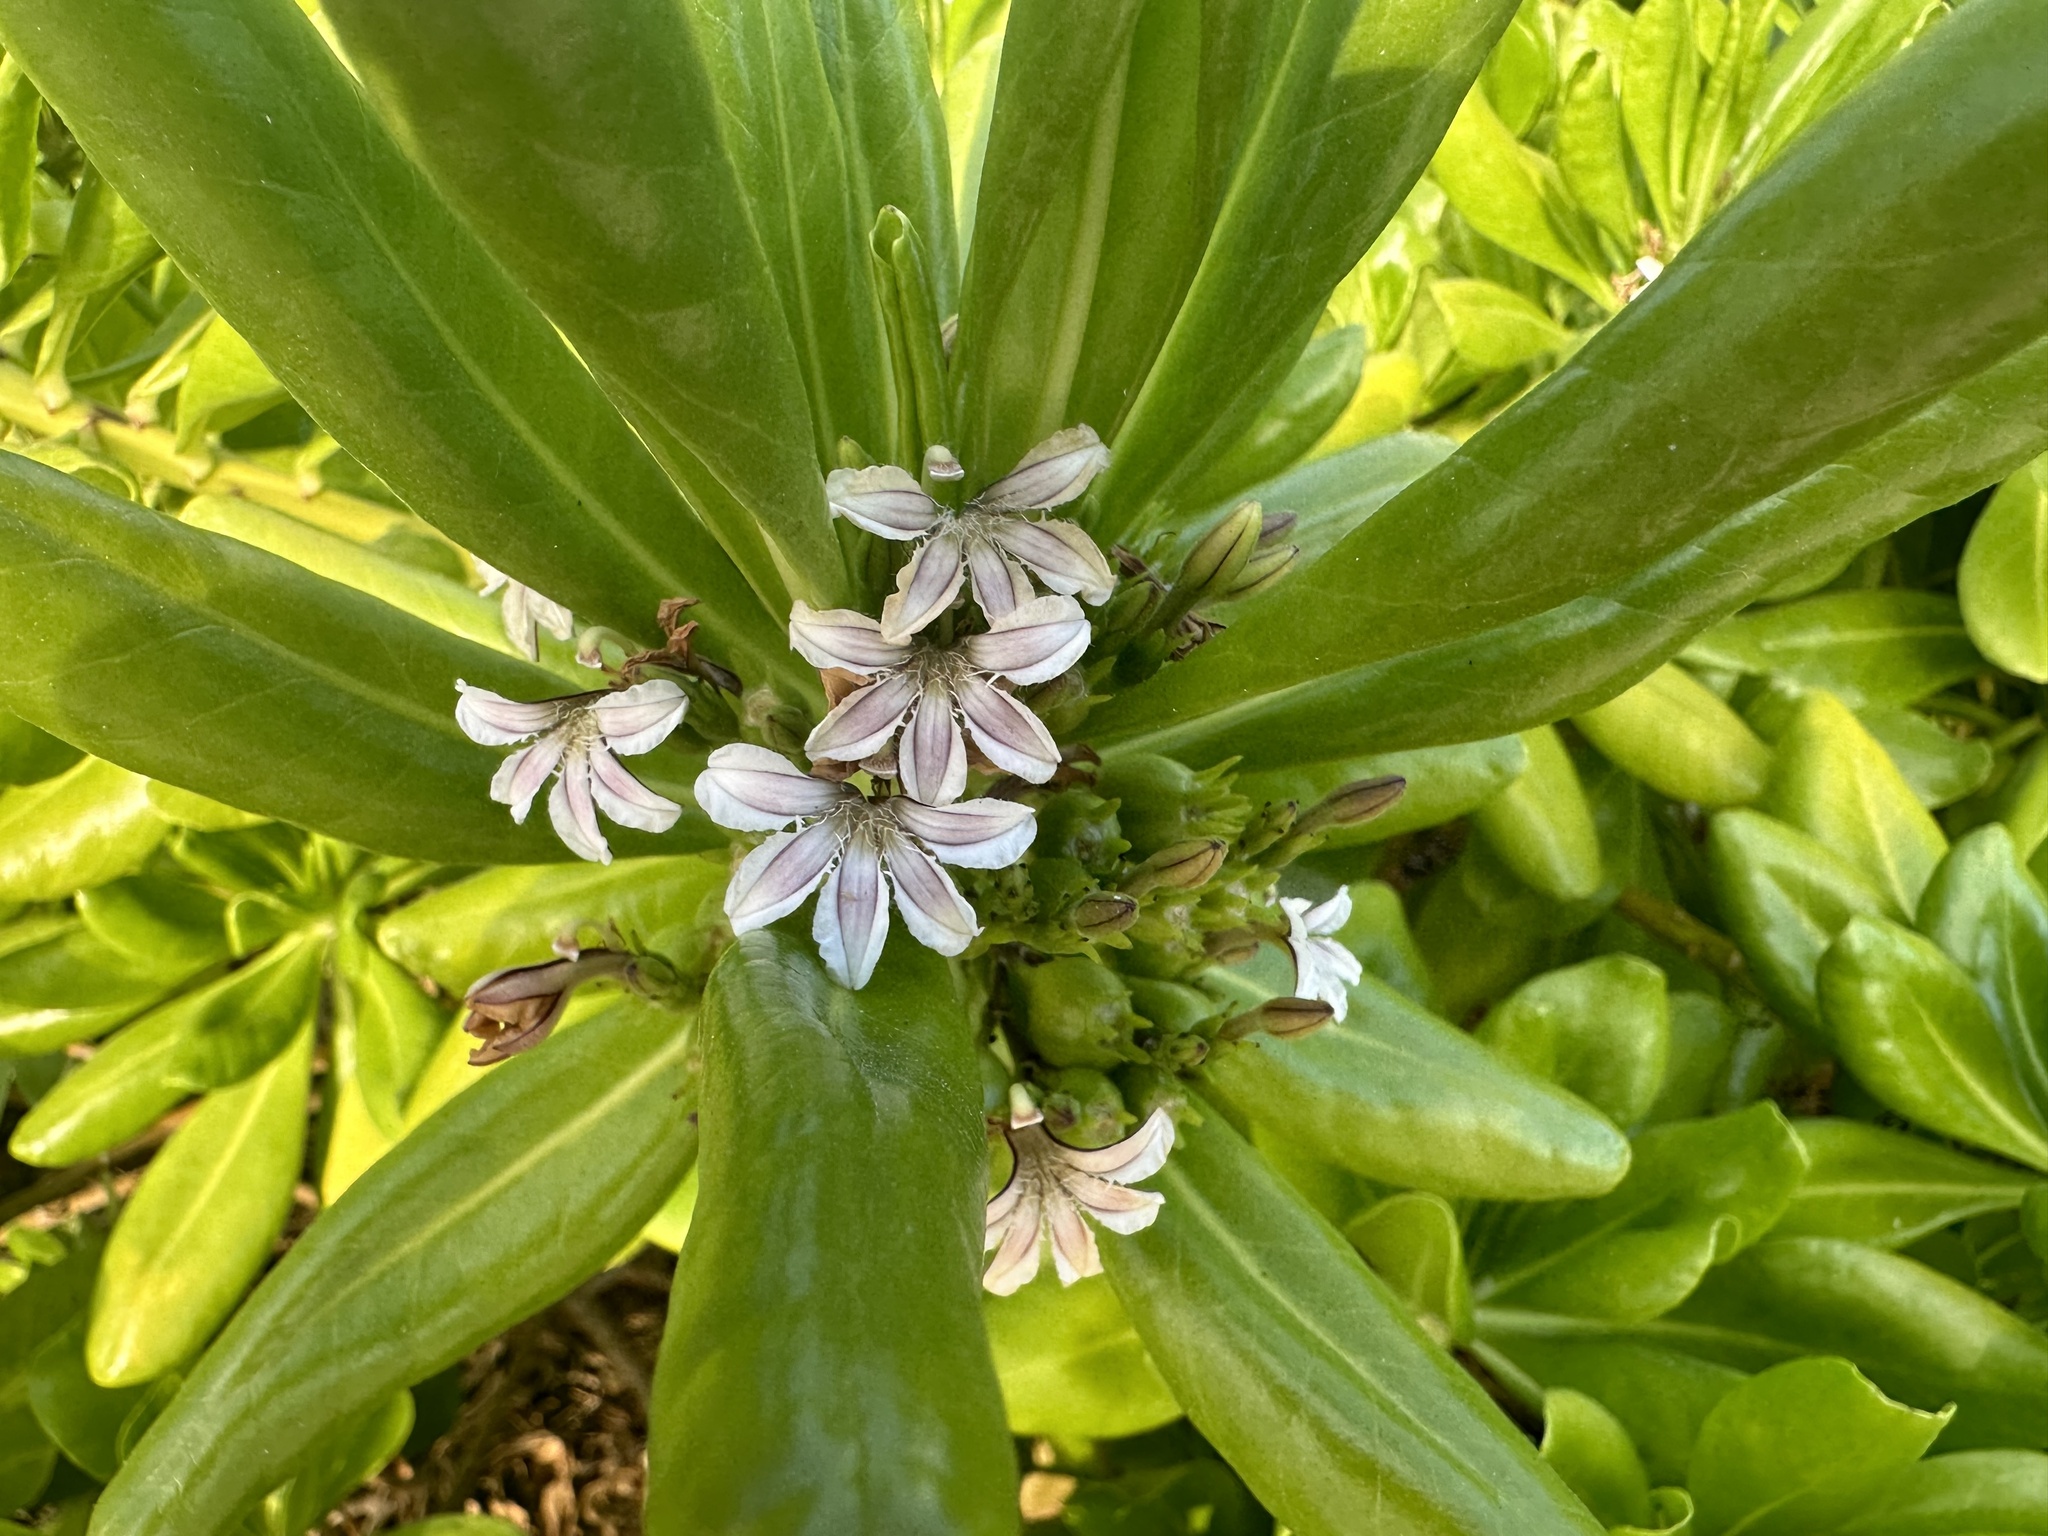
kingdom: Plantae
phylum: Tracheophyta
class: Magnoliopsida
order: Asterales
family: Goodeniaceae
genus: Scaevola
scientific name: Scaevola taccada
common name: Sea lettucetree
